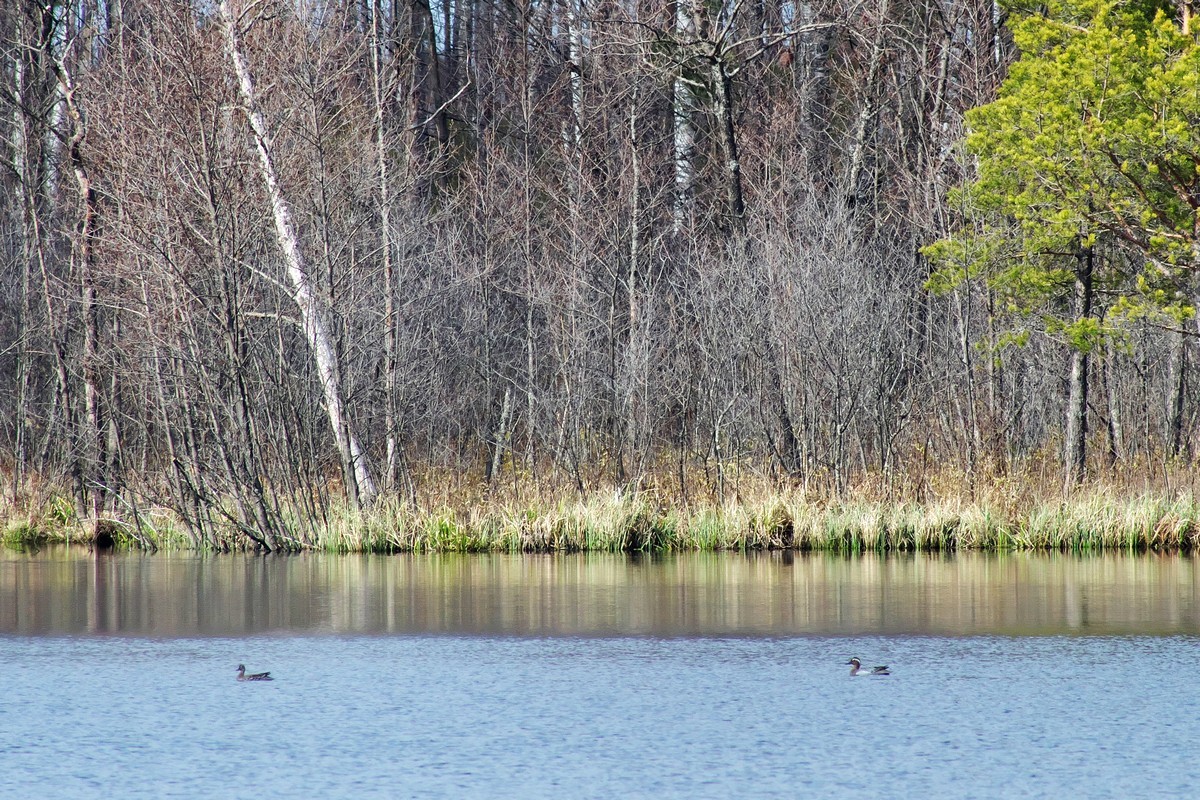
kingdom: Animalia
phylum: Chordata
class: Aves
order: Anseriformes
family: Anatidae
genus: Spatula
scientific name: Spatula querquedula
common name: Garganey
